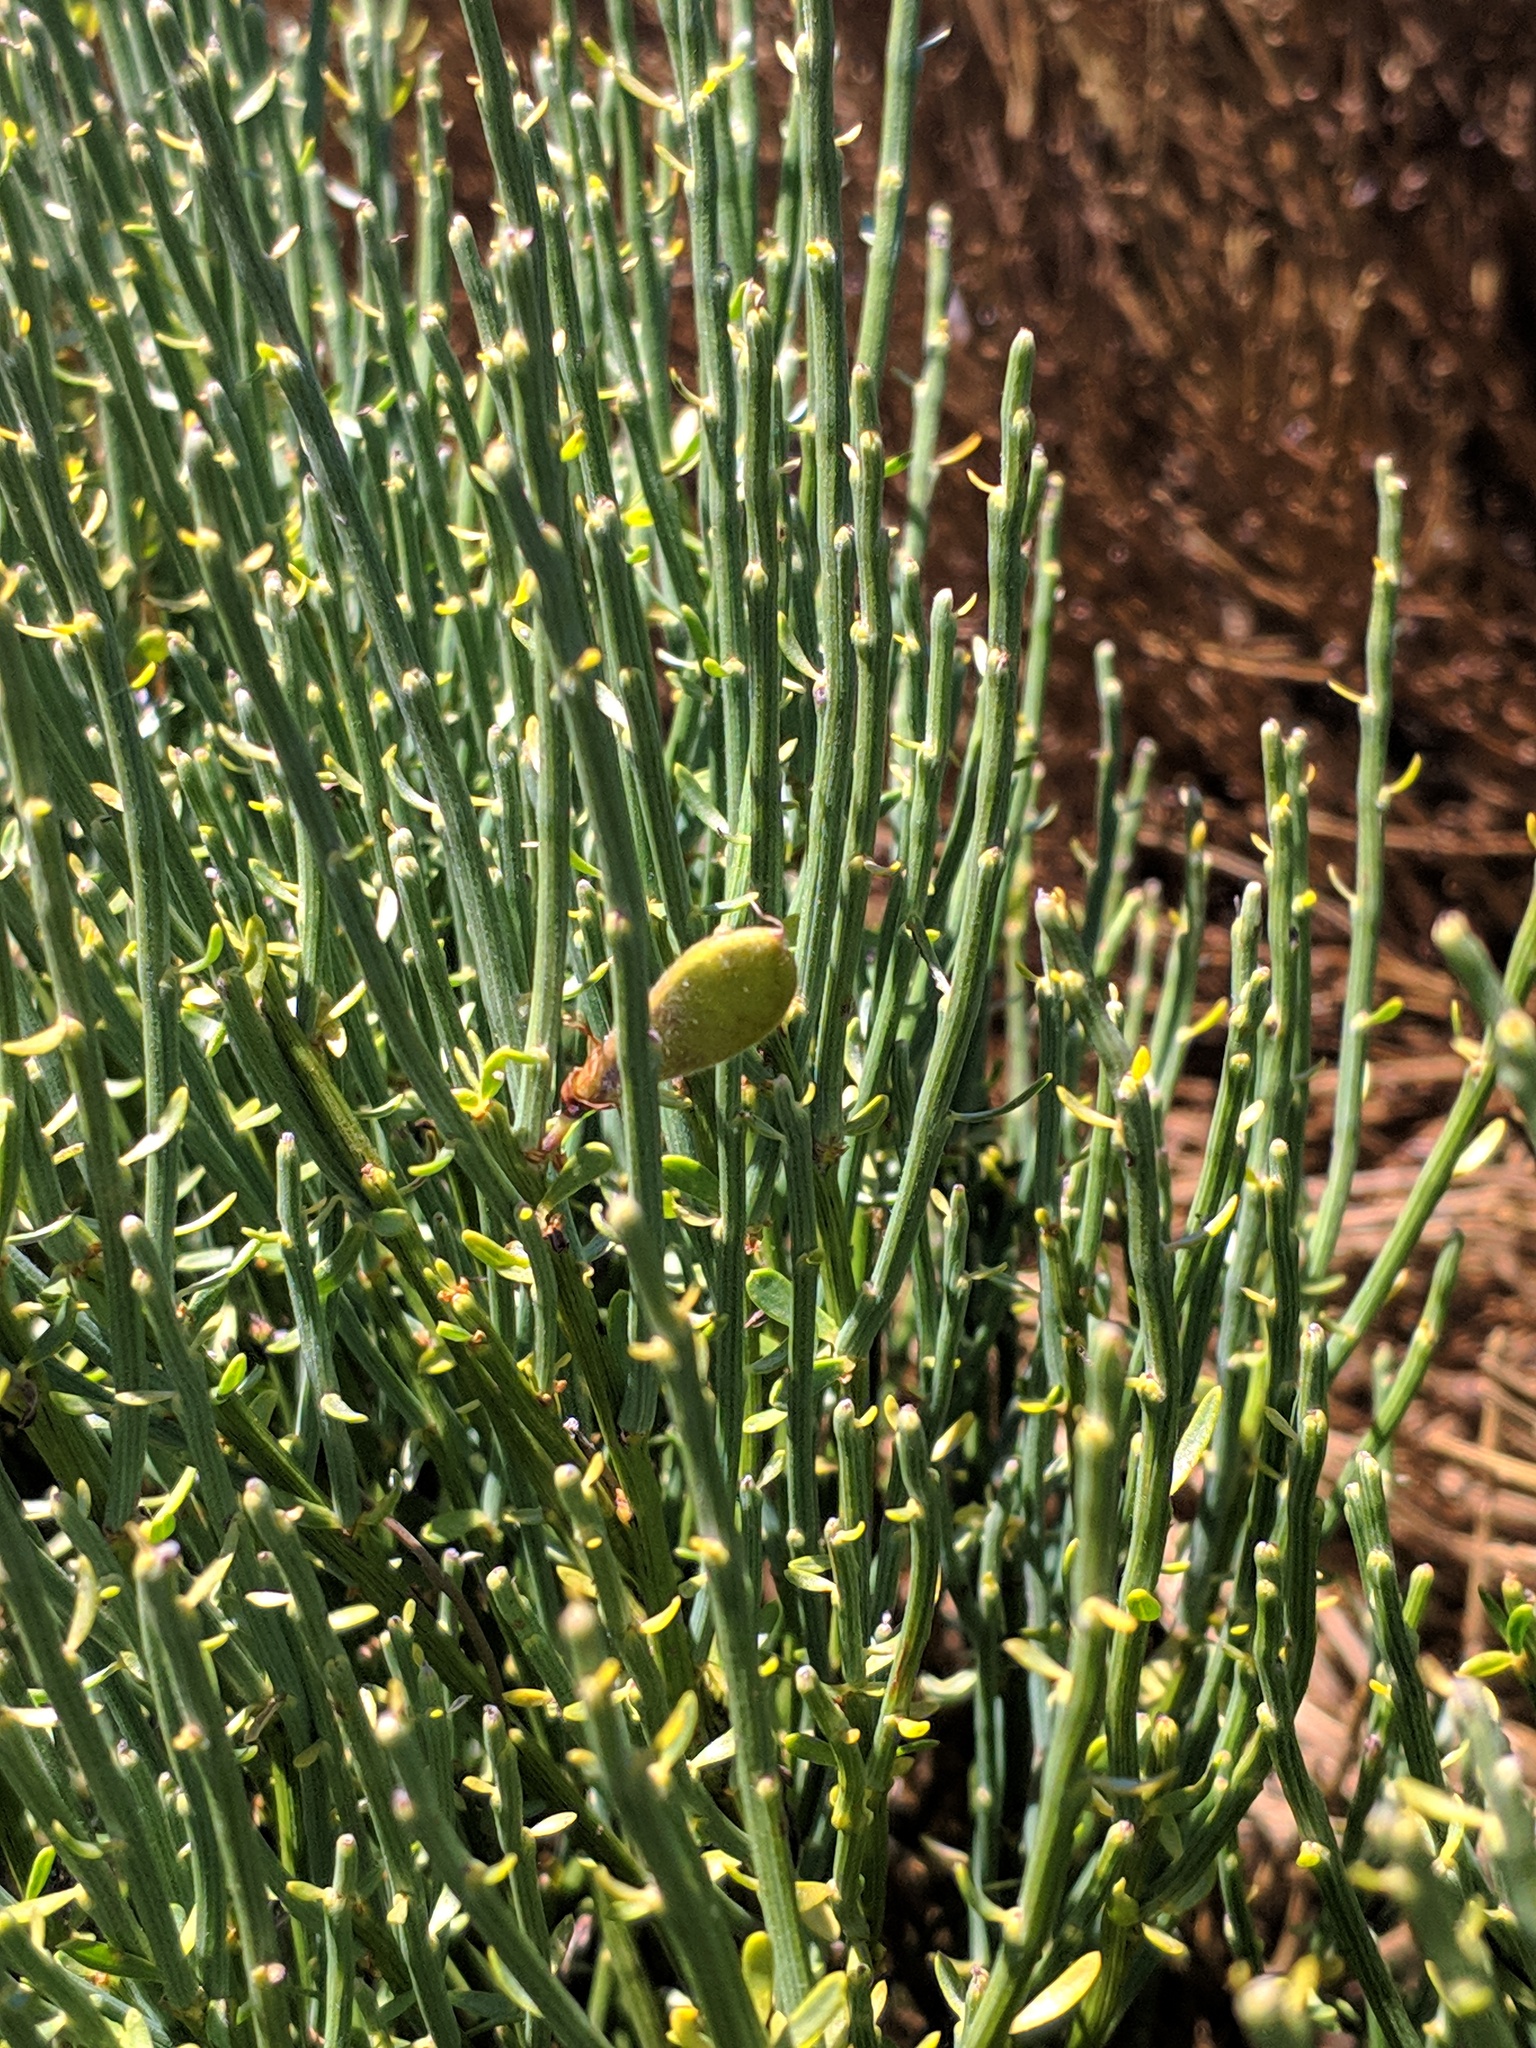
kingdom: Plantae
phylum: Tracheophyta
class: Magnoliopsida
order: Fabales
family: Fabaceae
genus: Cytisus
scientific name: Cytisus oromediterraneus
